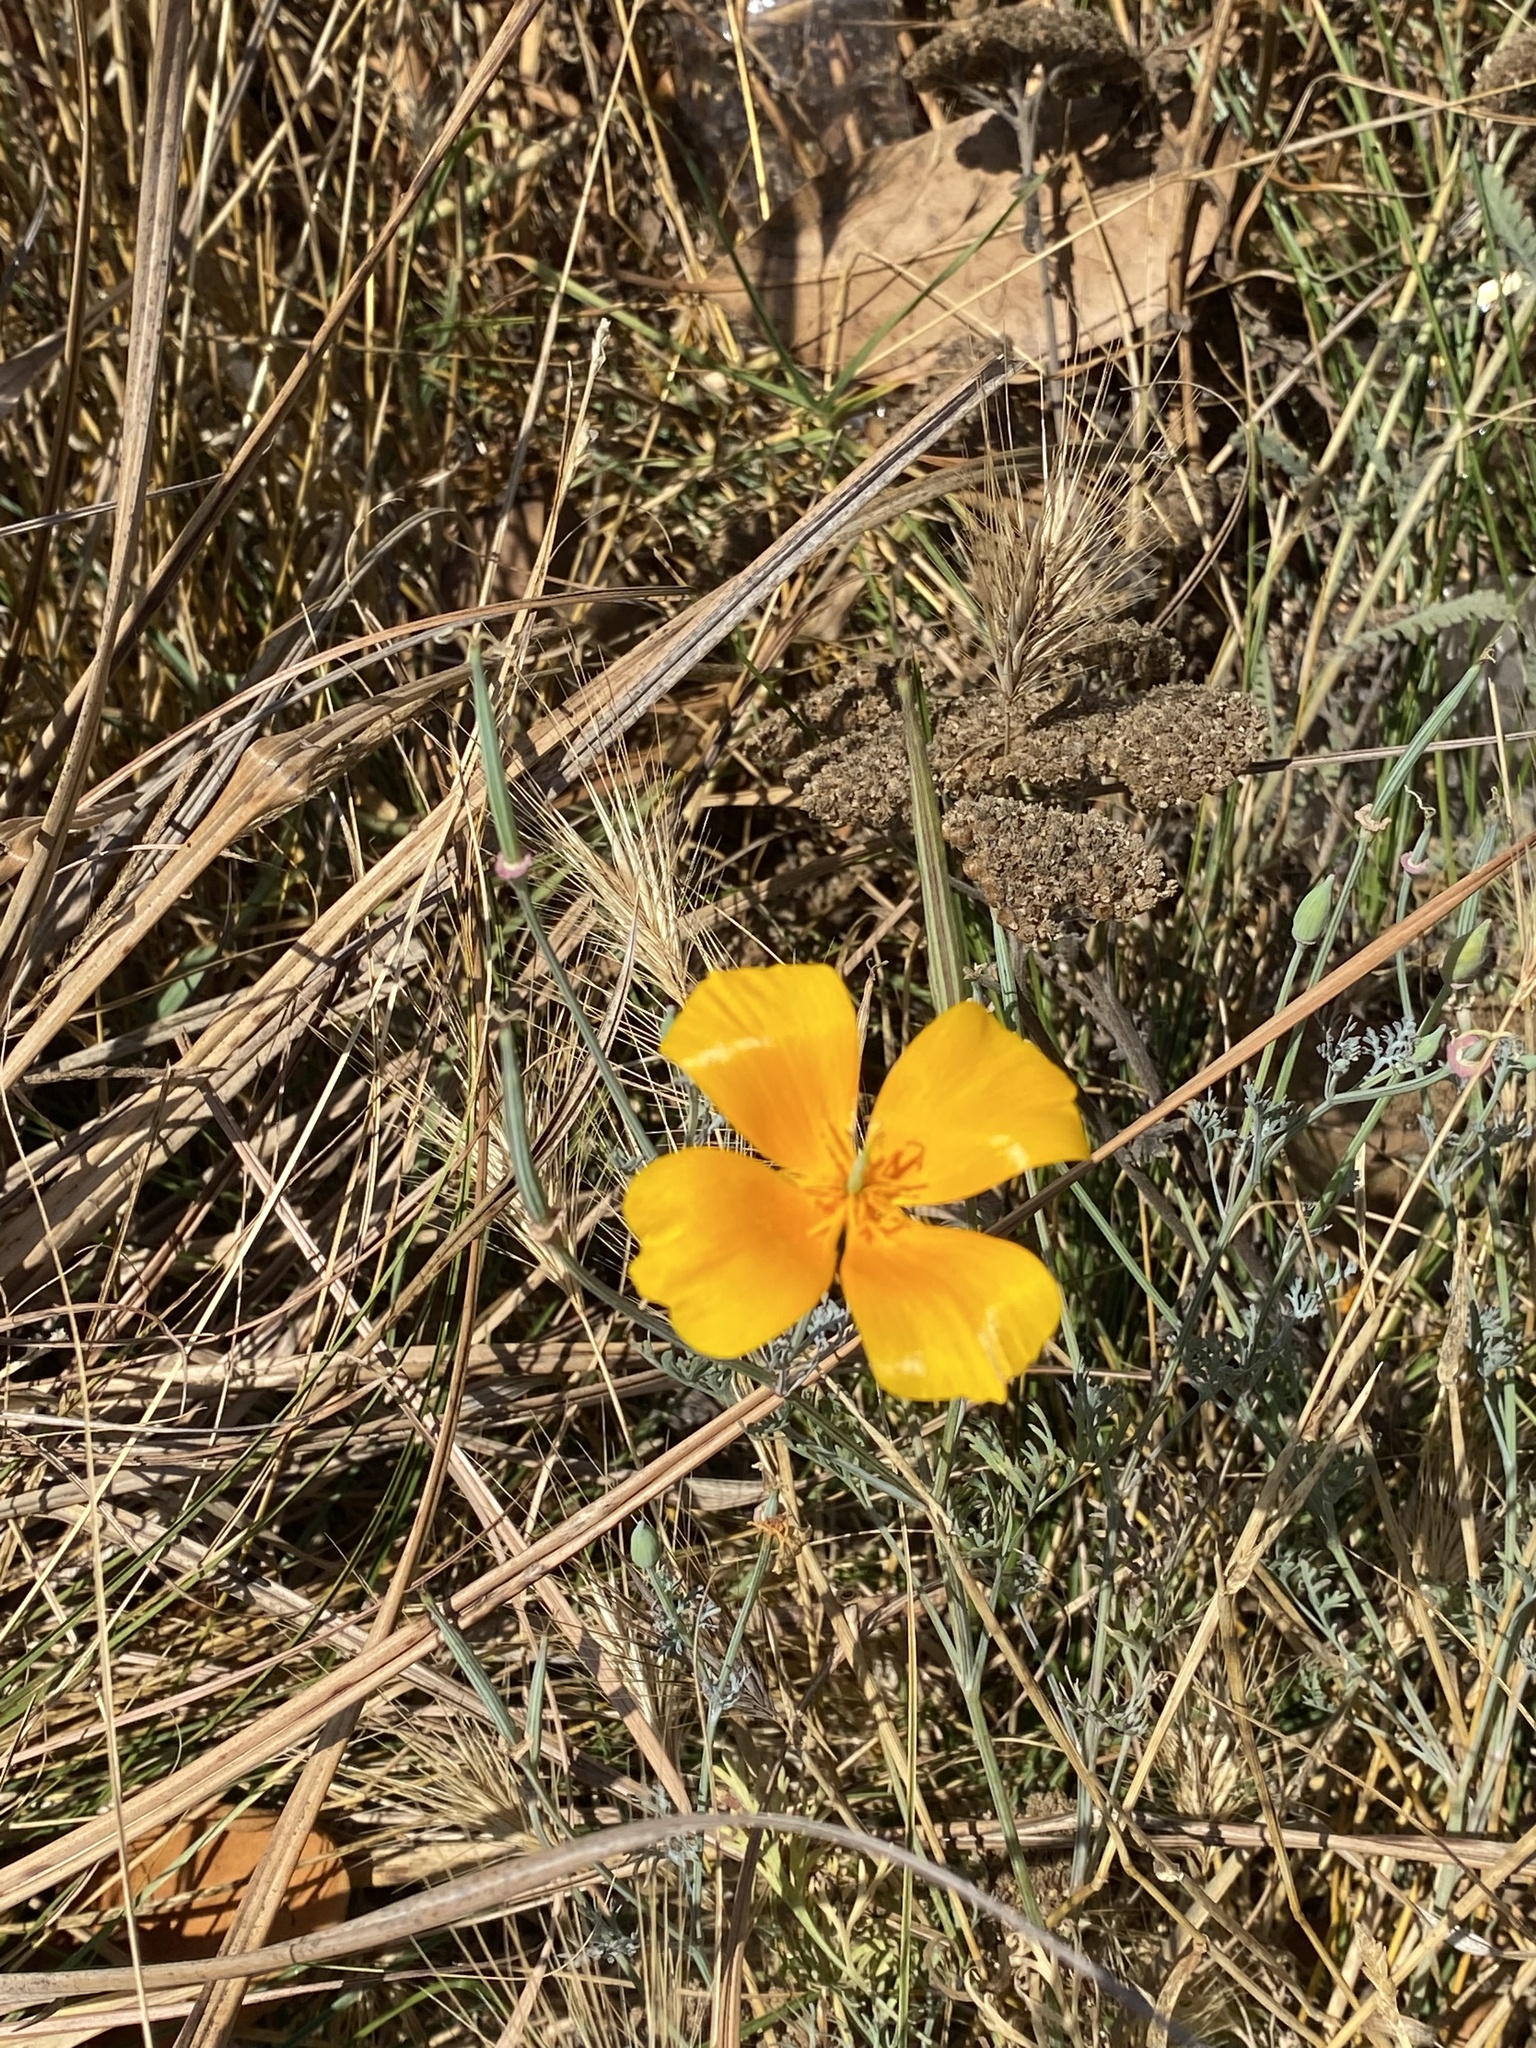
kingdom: Plantae
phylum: Tracheophyta
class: Magnoliopsida
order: Ranunculales
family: Papaveraceae
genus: Eschscholzia
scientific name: Eschscholzia californica
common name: California poppy
